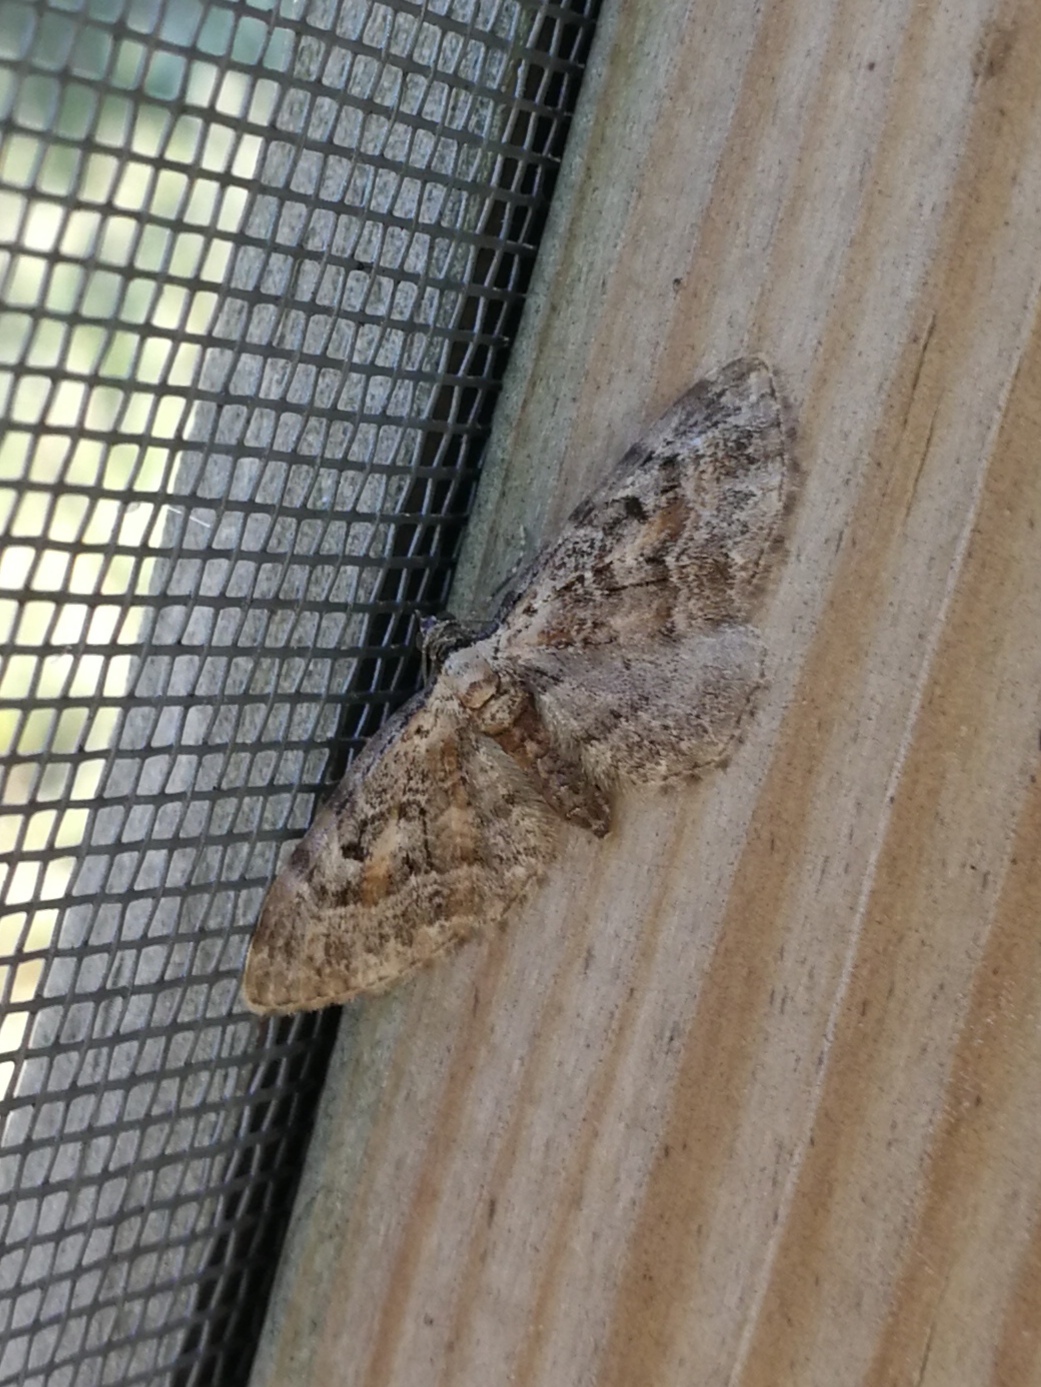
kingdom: Animalia
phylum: Arthropoda
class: Insecta
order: Lepidoptera
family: Geometridae
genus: Eupithecia
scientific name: Eupithecia icterata
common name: Tawny speckled pug
